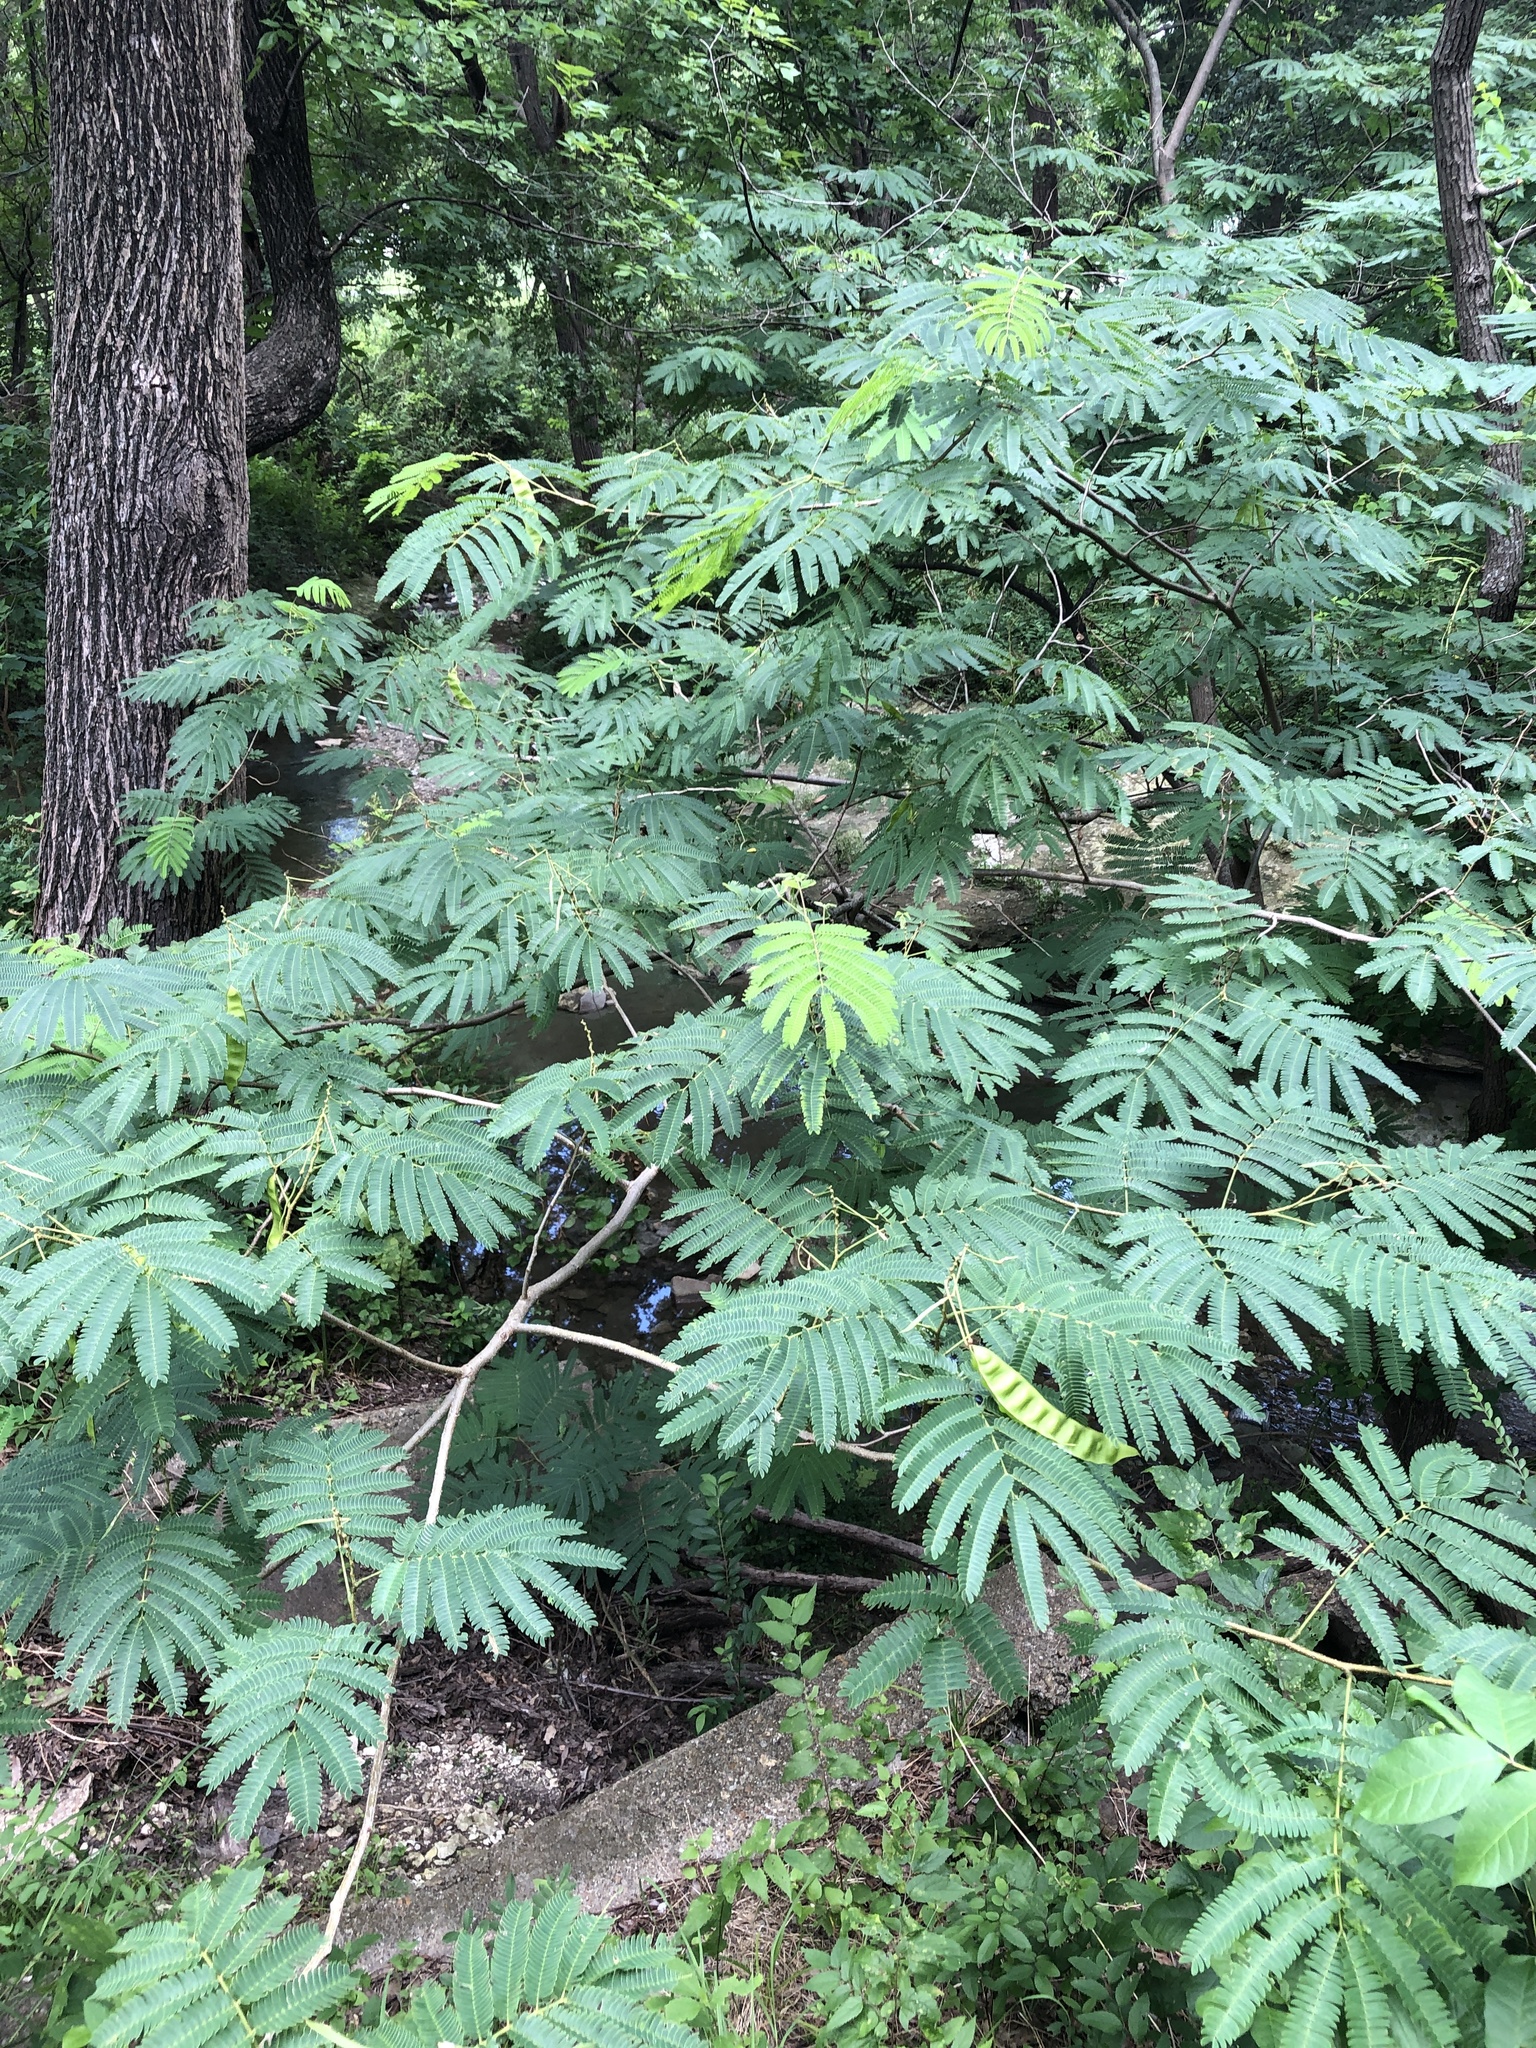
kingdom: Plantae
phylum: Tracheophyta
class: Magnoliopsida
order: Fabales
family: Fabaceae
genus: Albizia
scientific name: Albizia julibrissin
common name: Silktree
